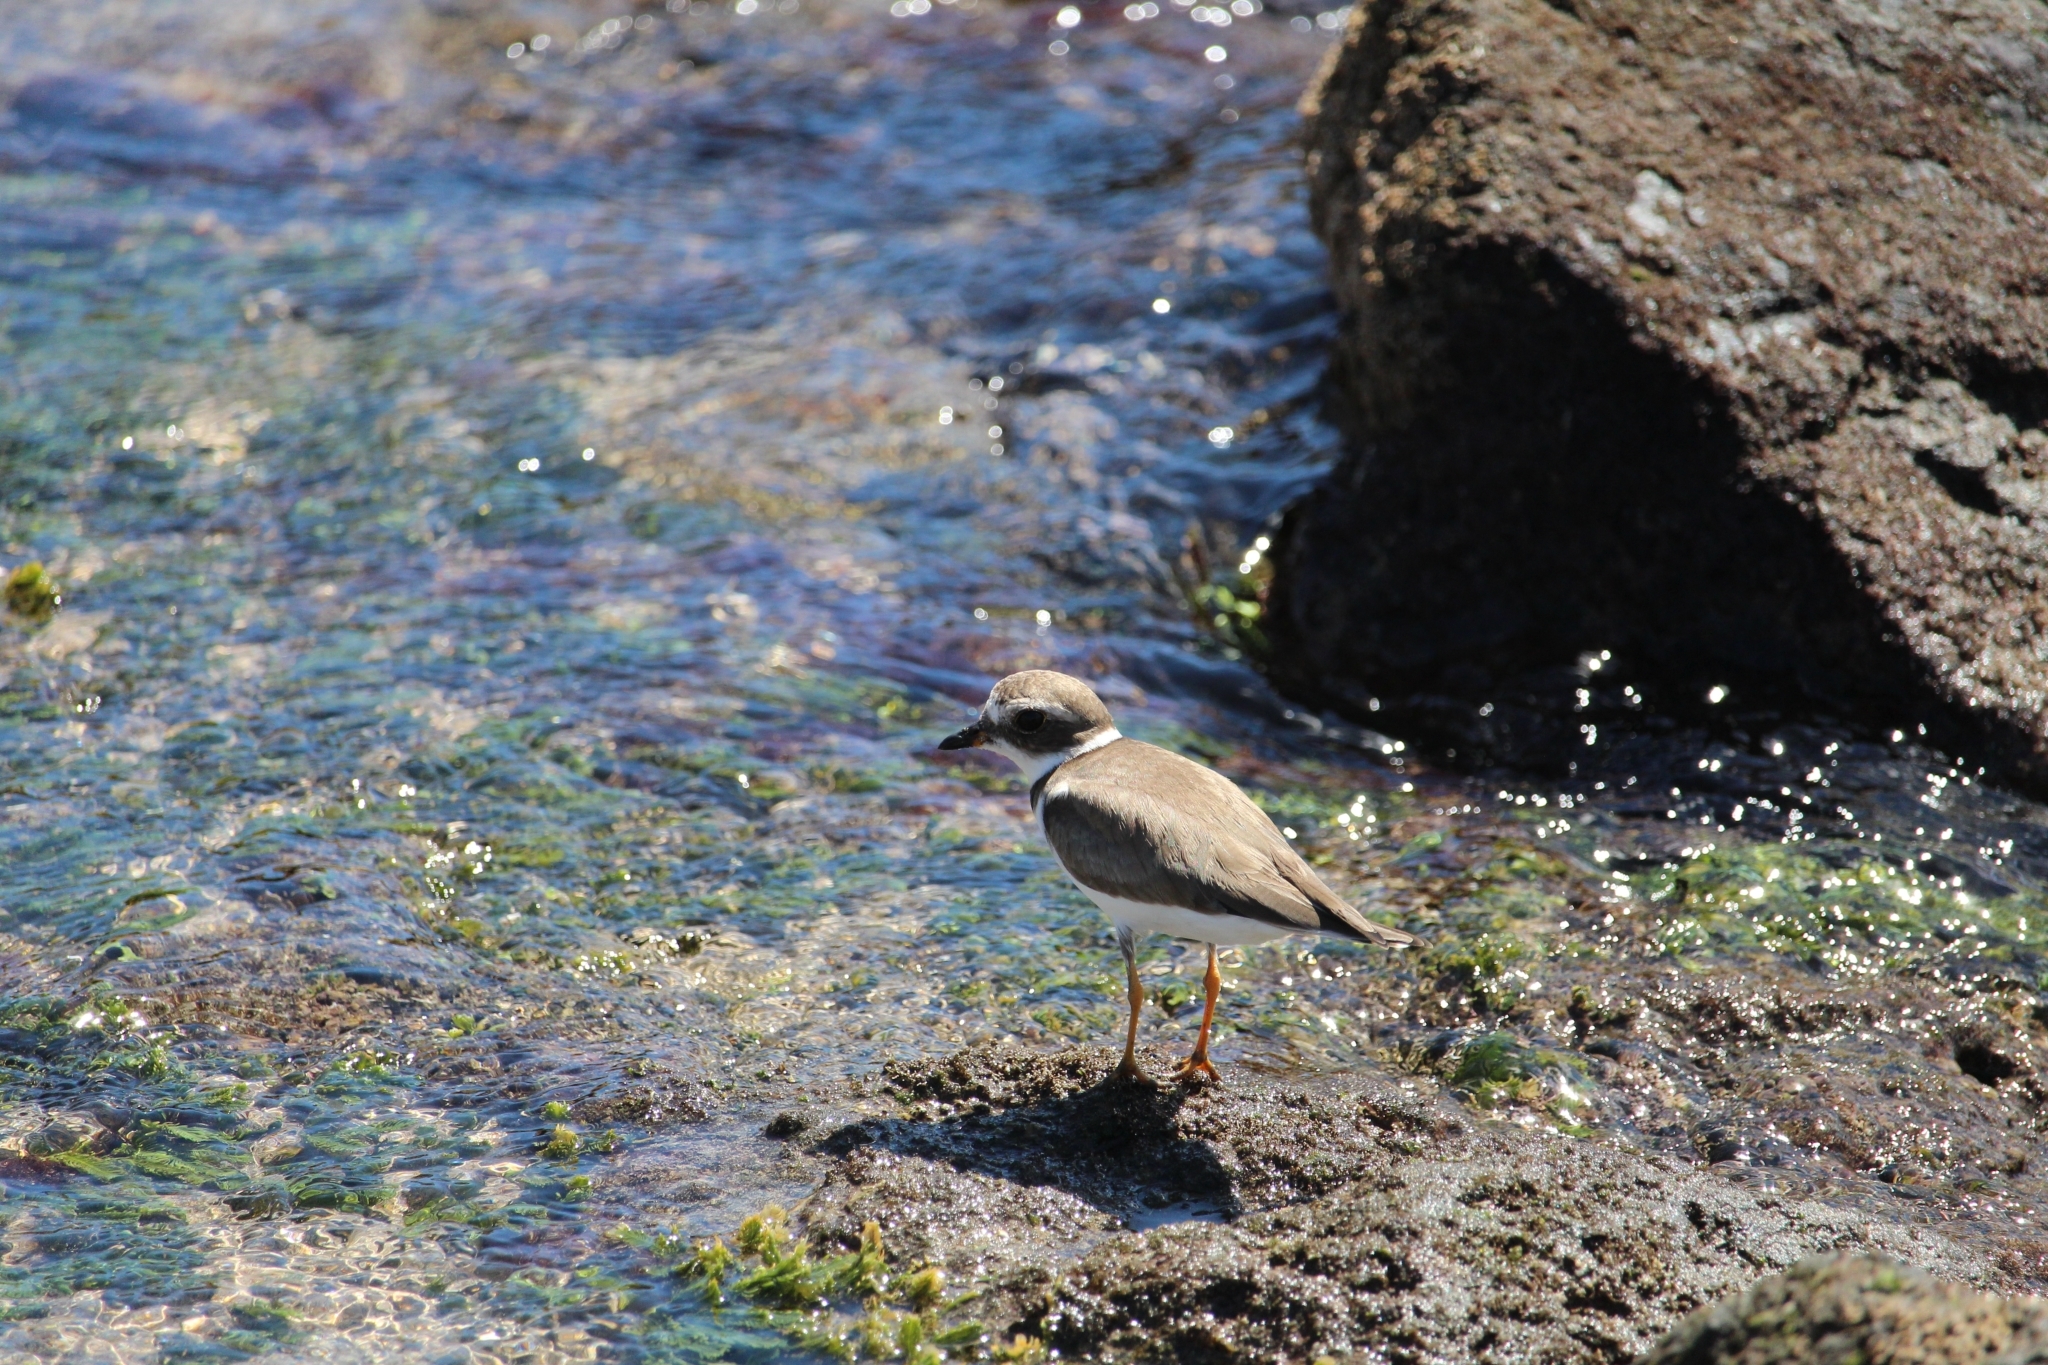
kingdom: Animalia
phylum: Chordata
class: Aves
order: Charadriiformes
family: Charadriidae
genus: Charadrius
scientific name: Charadrius semipalmatus
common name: Semipalmated plover
